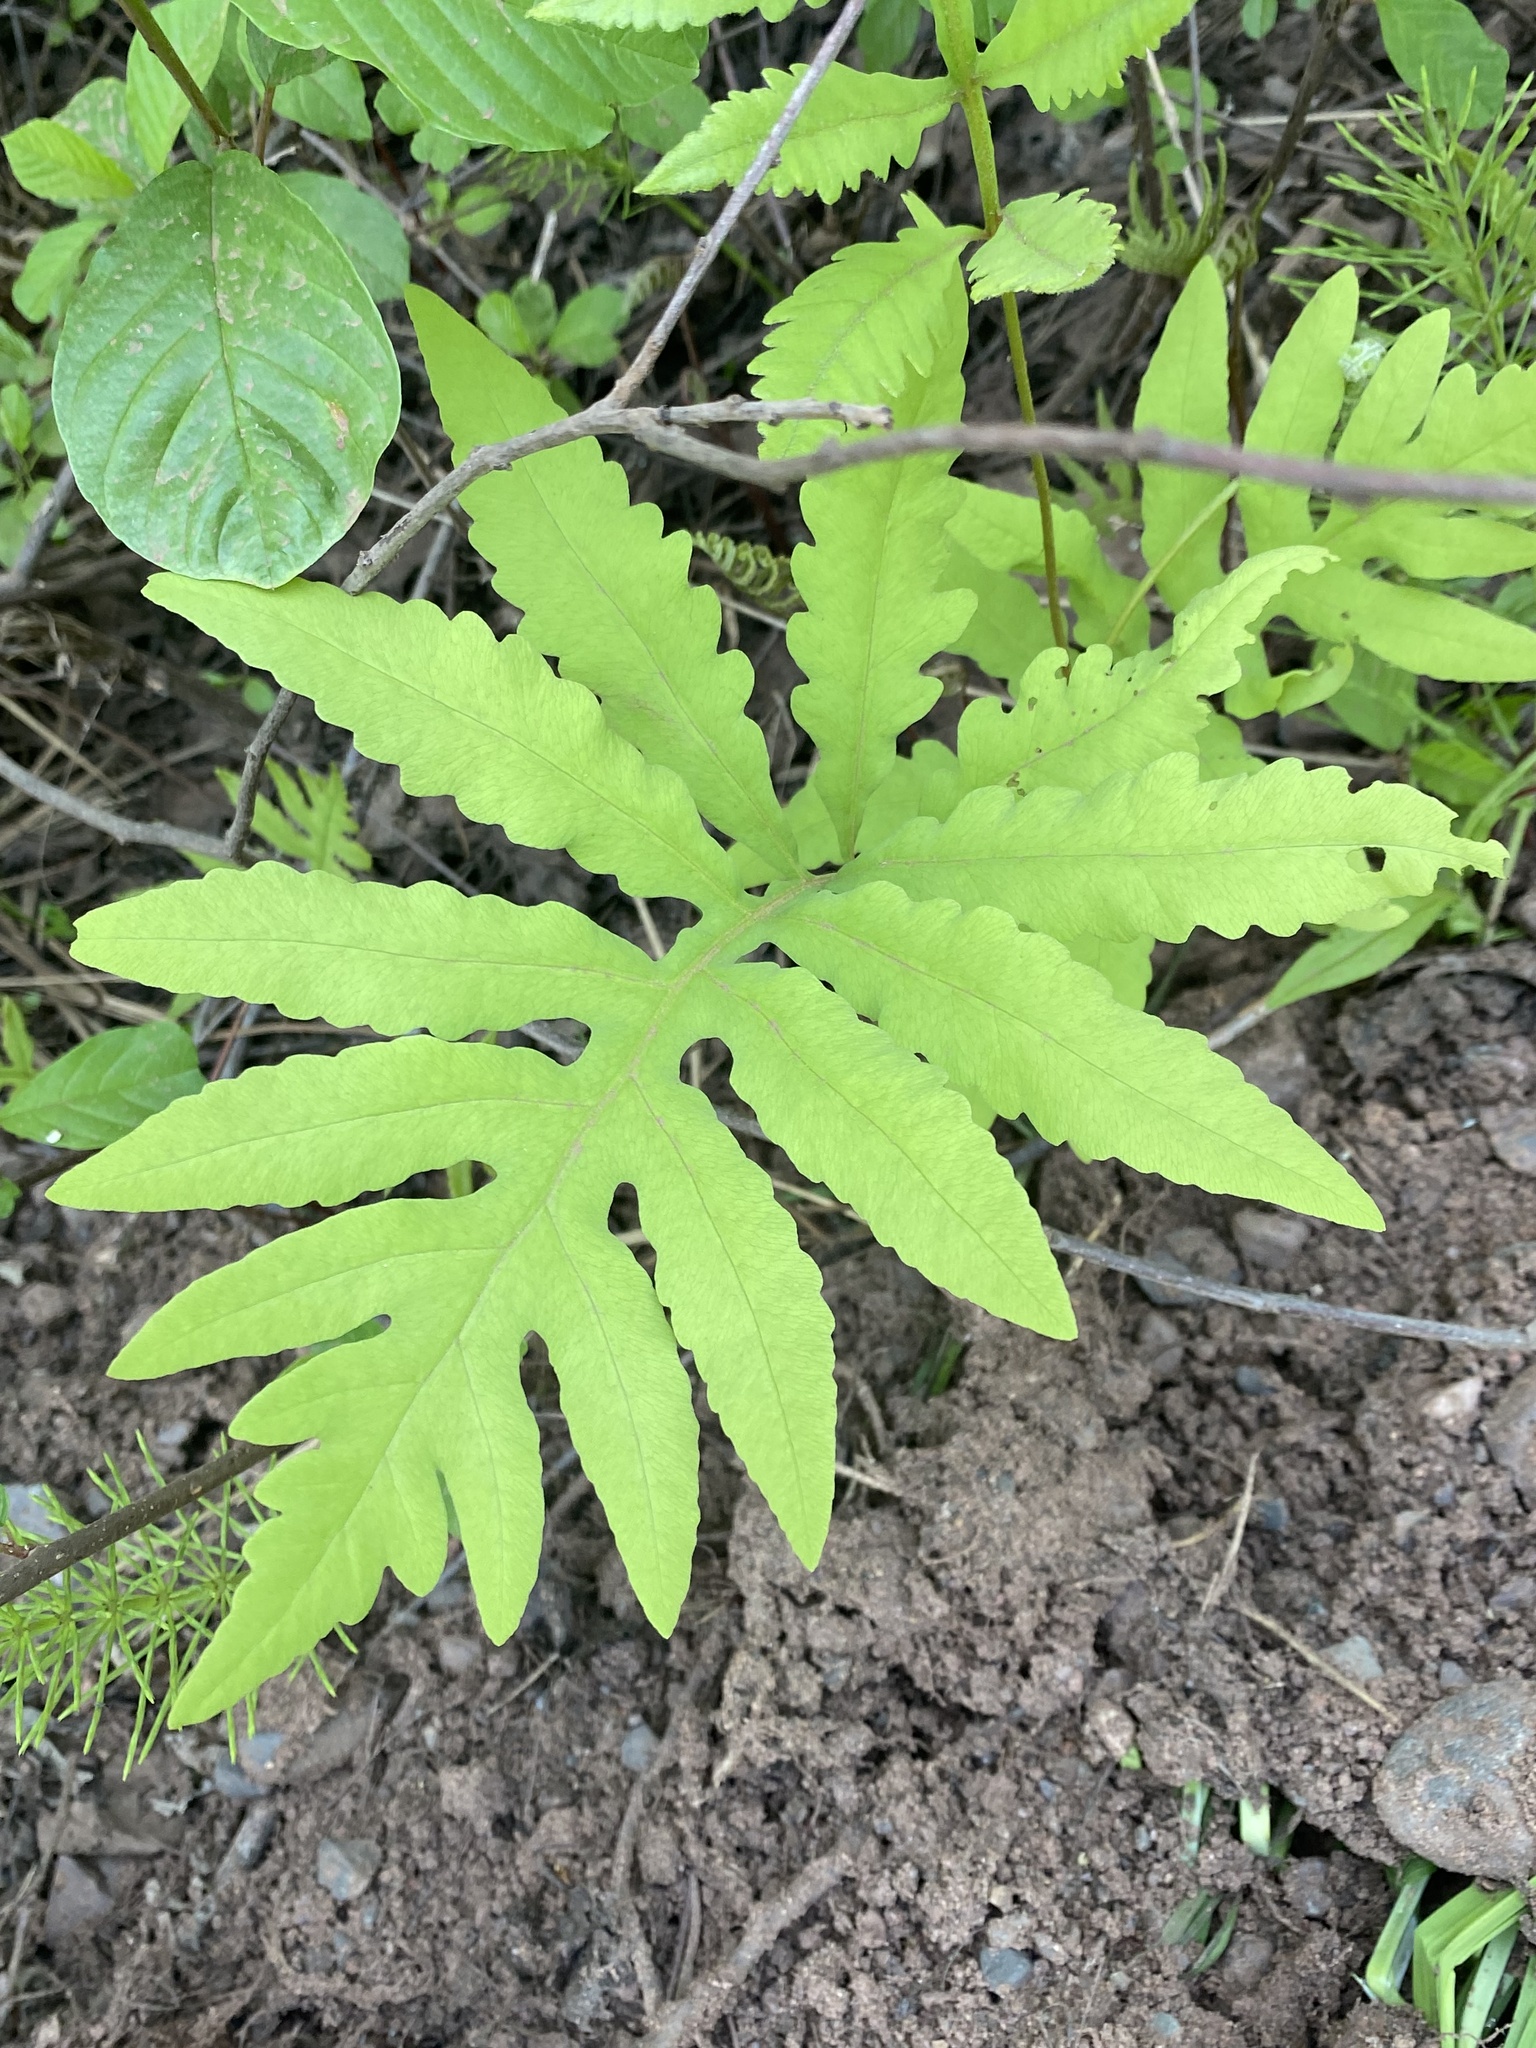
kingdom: Plantae
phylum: Tracheophyta
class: Polypodiopsida
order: Polypodiales
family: Onocleaceae
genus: Onoclea
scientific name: Onoclea sensibilis
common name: Sensitive fern
